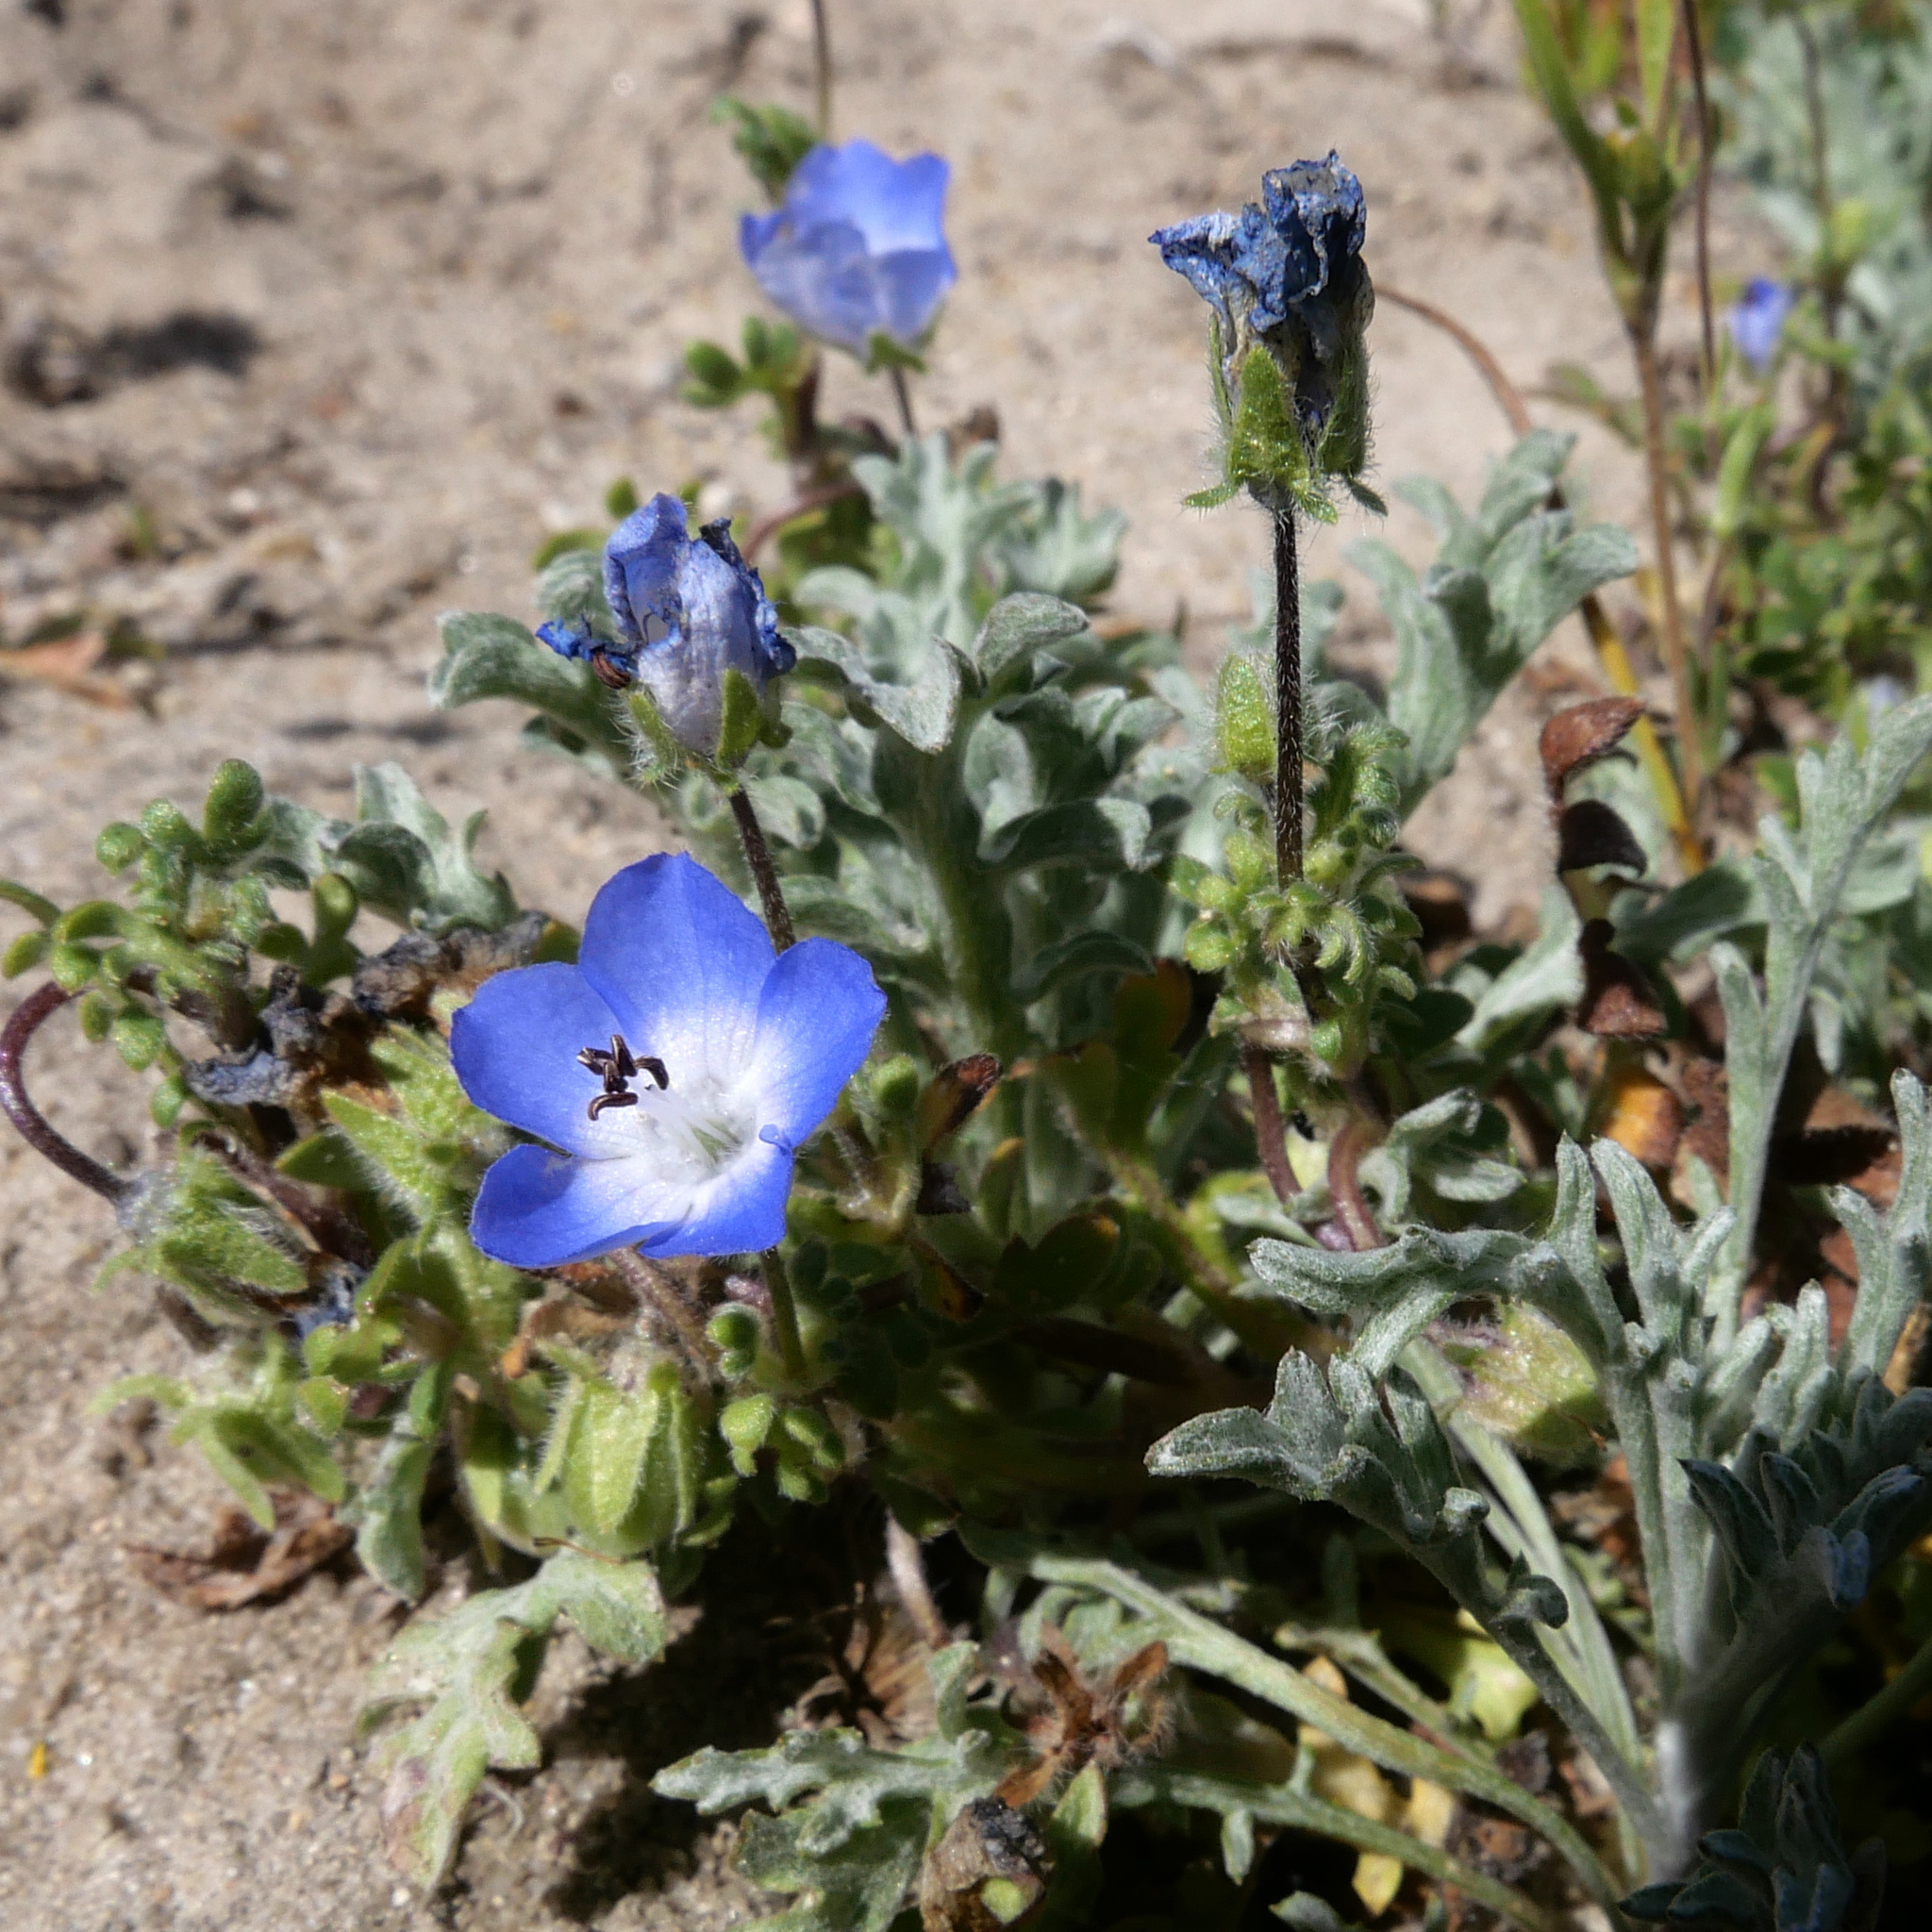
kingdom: Plantae
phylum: Tracheophyta
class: Magnoliopsida
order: Boraginales
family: Hydrophyllaceae
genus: Nemophila
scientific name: Nemophila menziesii
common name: Baby's-blue-eyes
